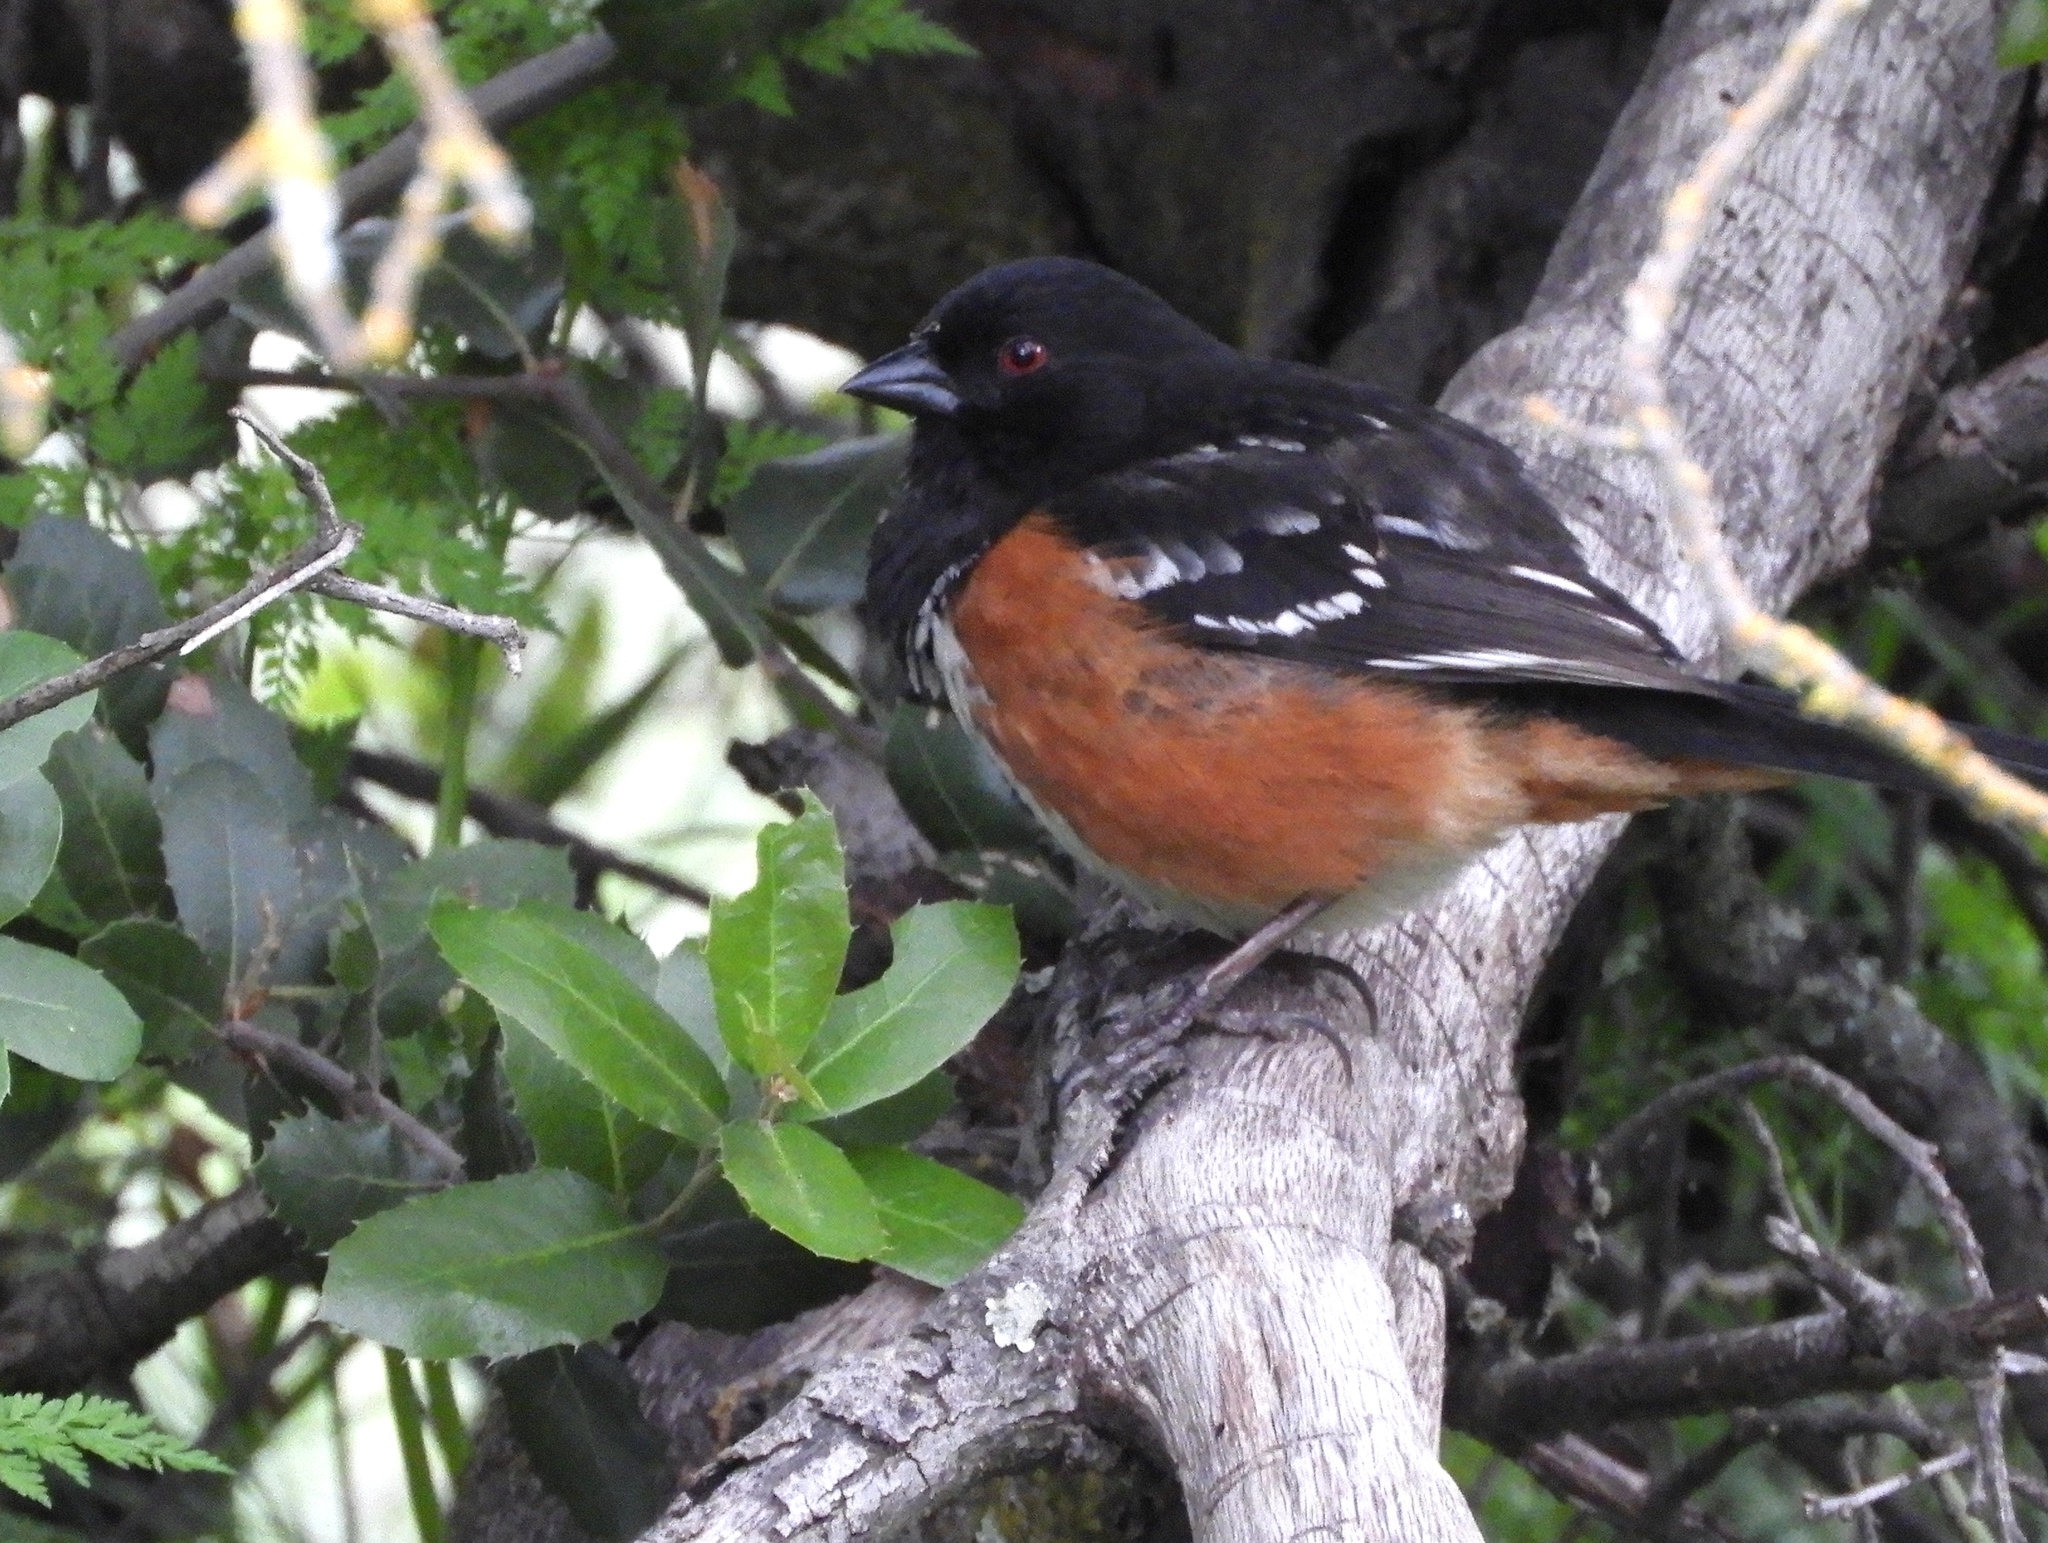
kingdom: Animalia
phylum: Chordata
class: Aves
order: Passeriformes
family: Passerellidae
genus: Pipilo
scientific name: Pipilo maculatus
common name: Spotted towhee
